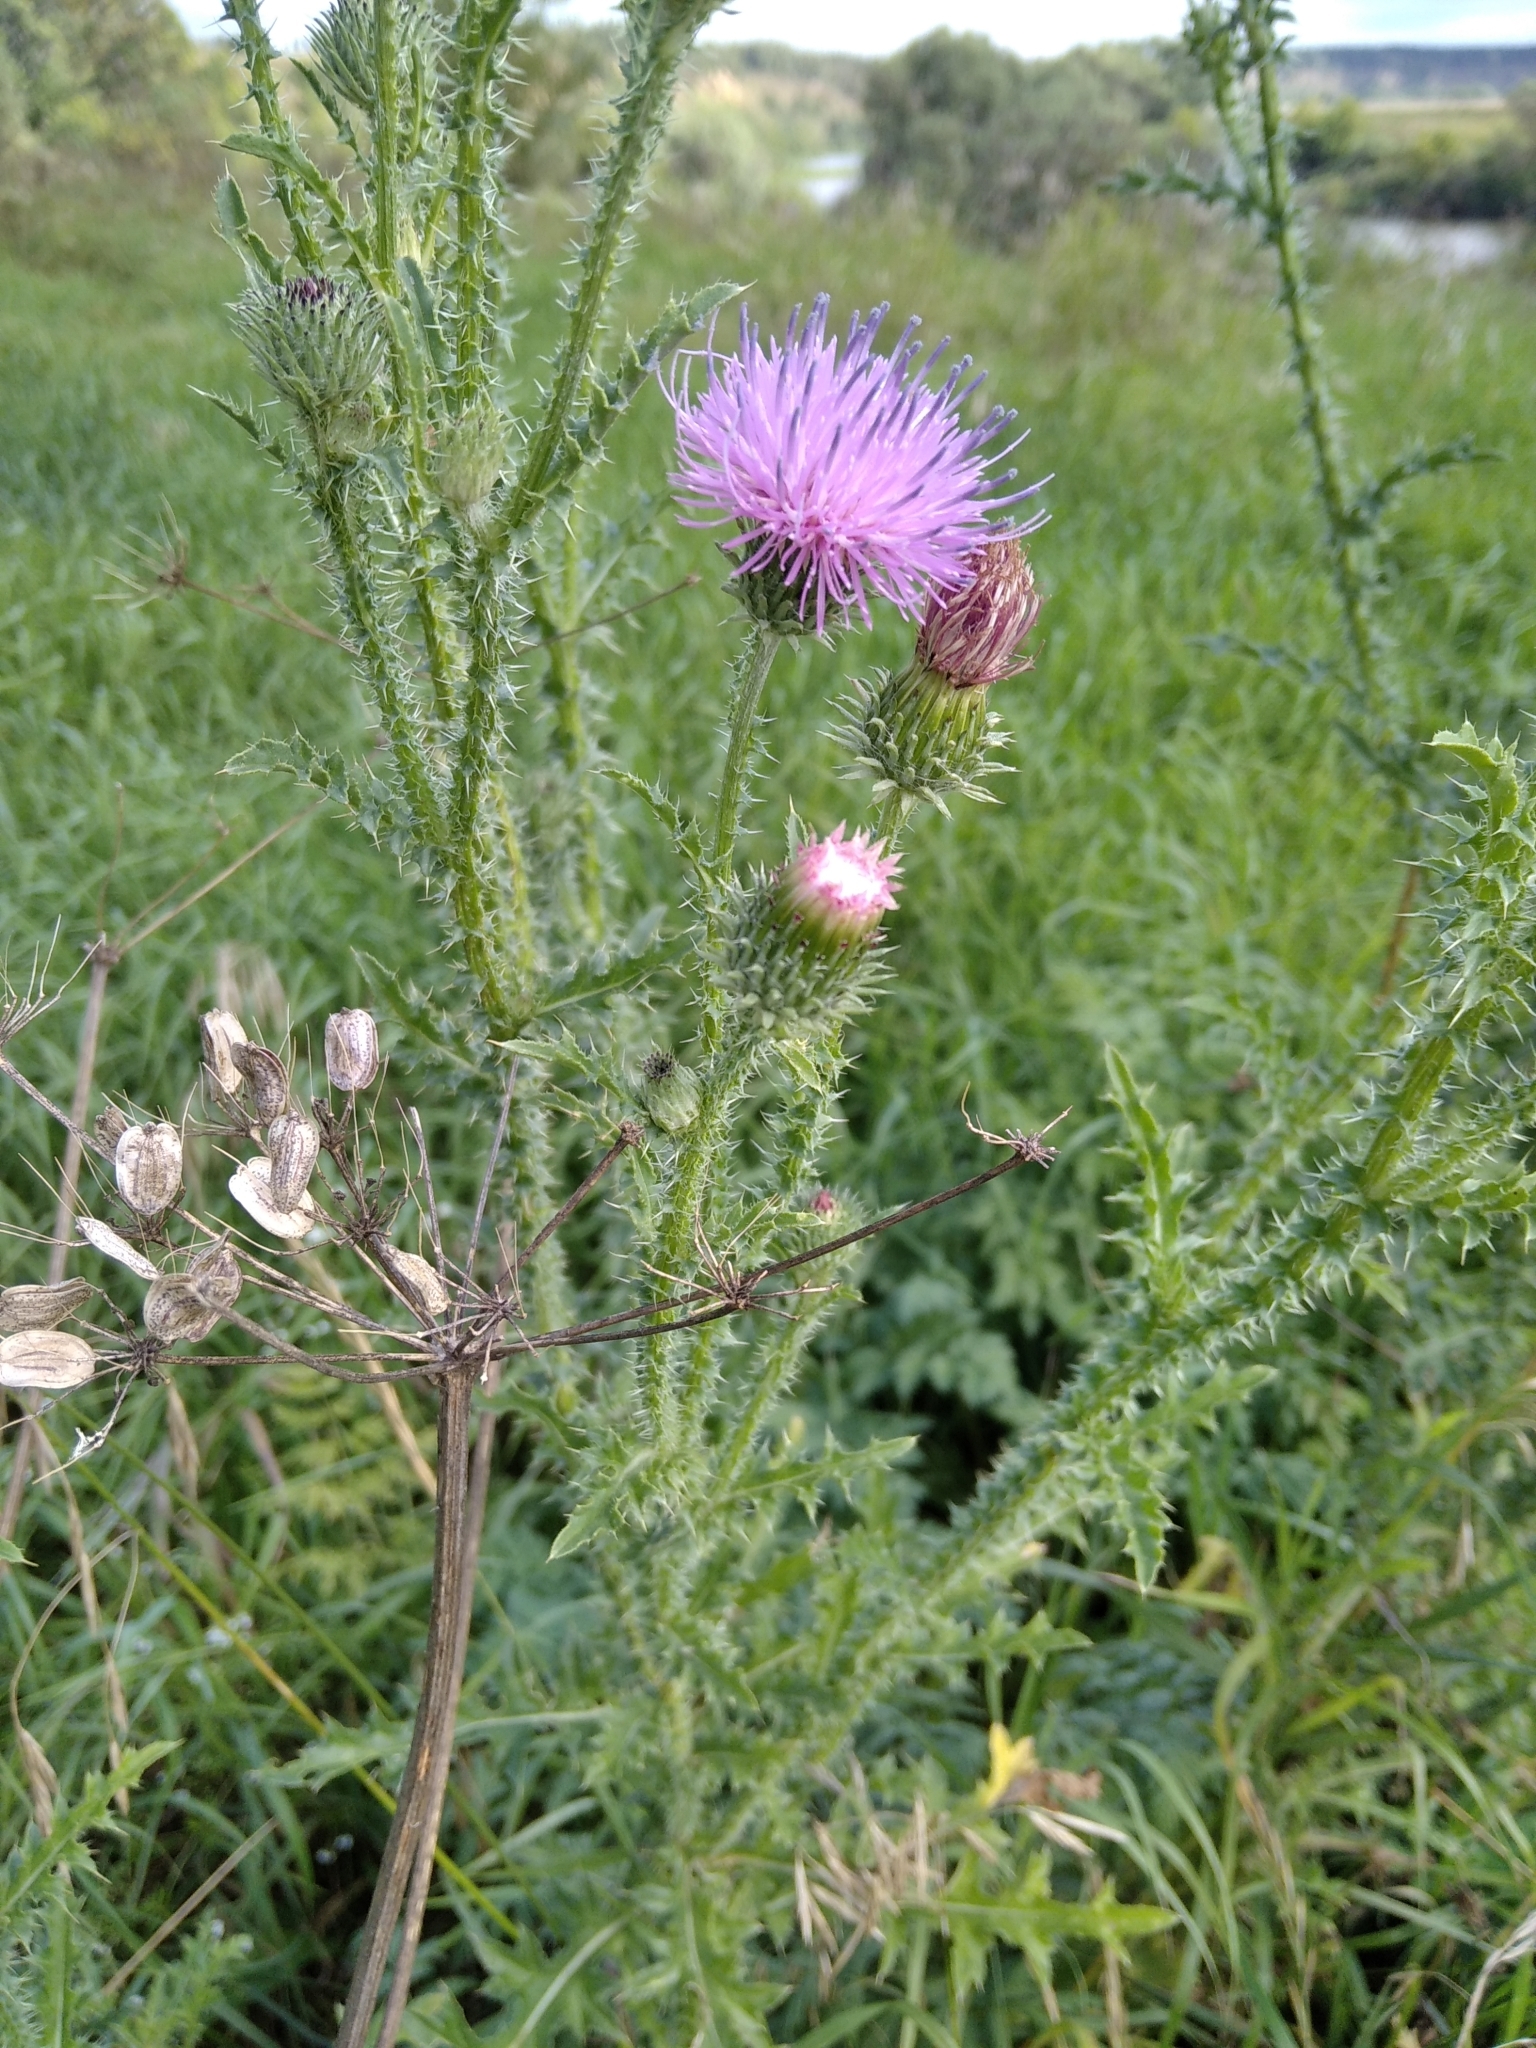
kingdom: Plantae
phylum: Tracheophyta
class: Magnoliopsida
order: Asterales
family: Asteraceae
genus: Carduus
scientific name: Carduus acanthoides
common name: Plumeless thistle
